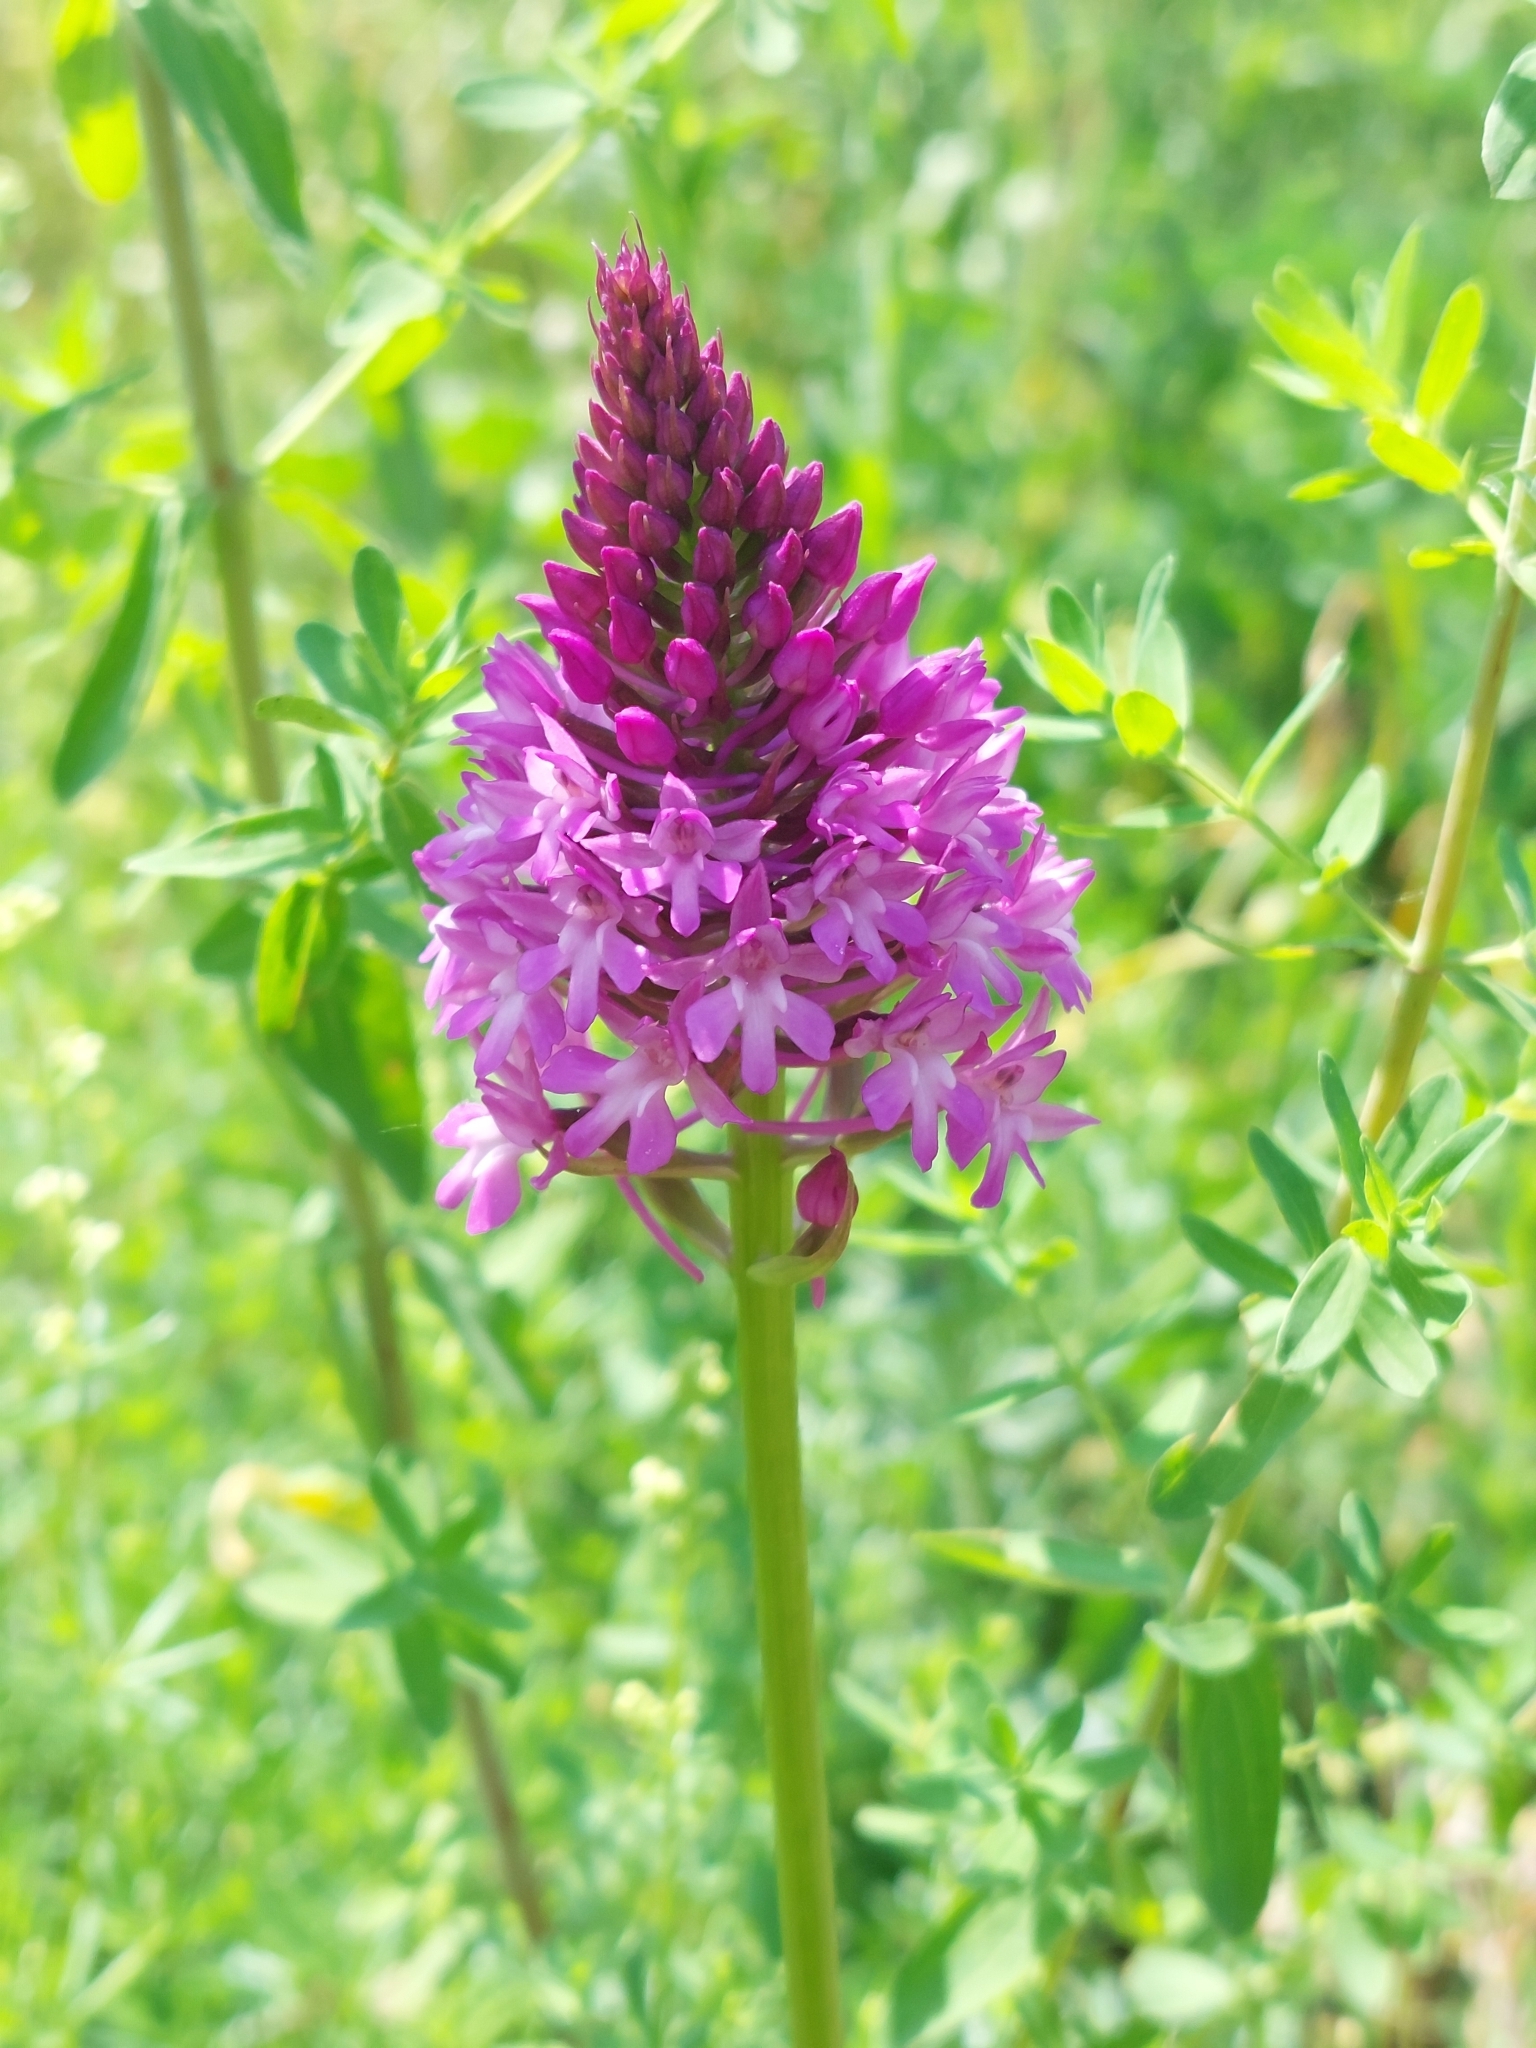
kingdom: Plantae
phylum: Tracheophyta
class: Liliopsida
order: Asparagales
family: Orchidaceae
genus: Anacamptis
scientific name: Anacamptis pyramidalis
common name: Pyramidal orchid
